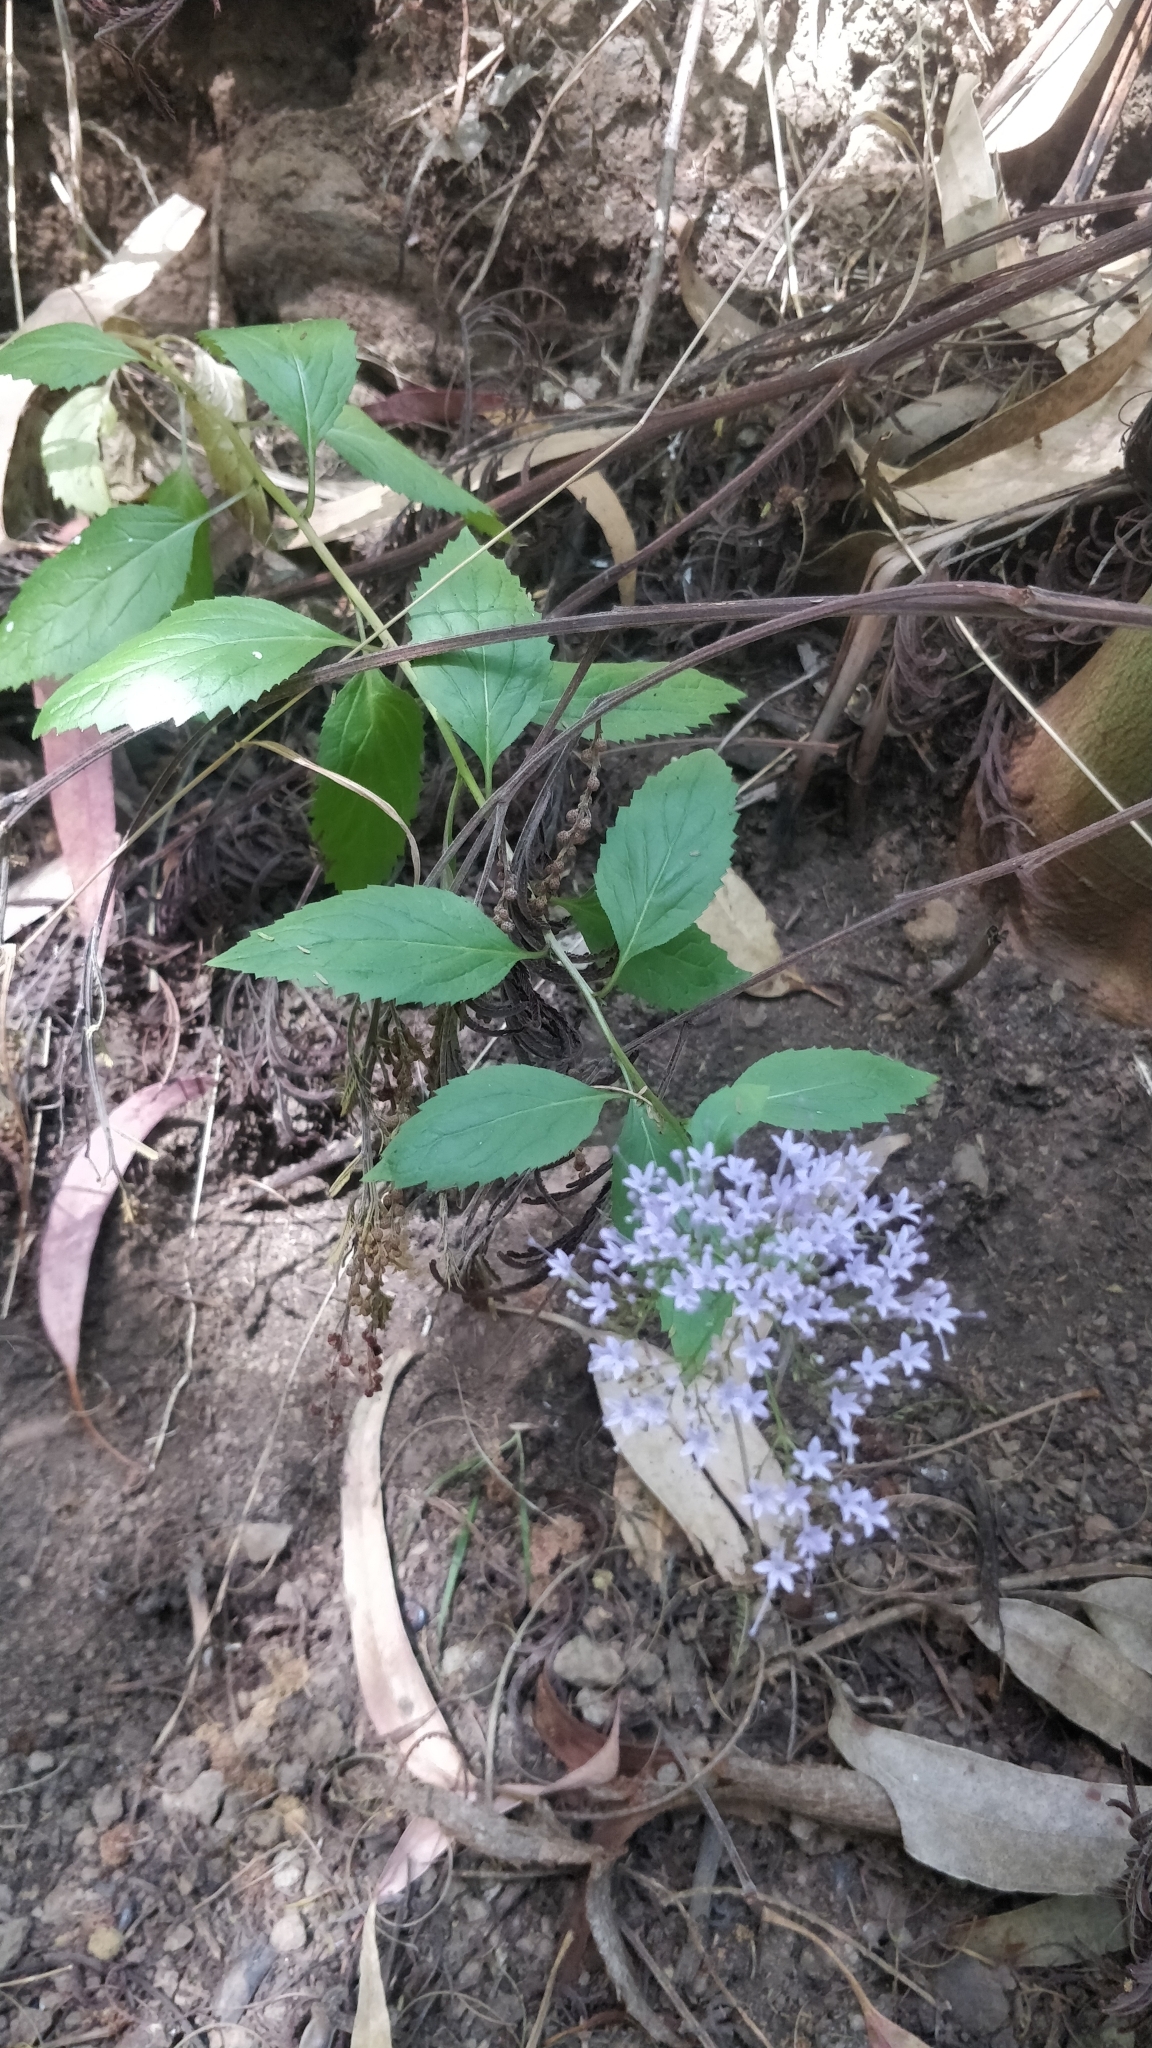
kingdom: Plantae
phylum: Tracheophyta
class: Magnoliopsida
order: Asterales
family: Campanulaceae
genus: Trachelium
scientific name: Trachelium caeruleum
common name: Throatwort
